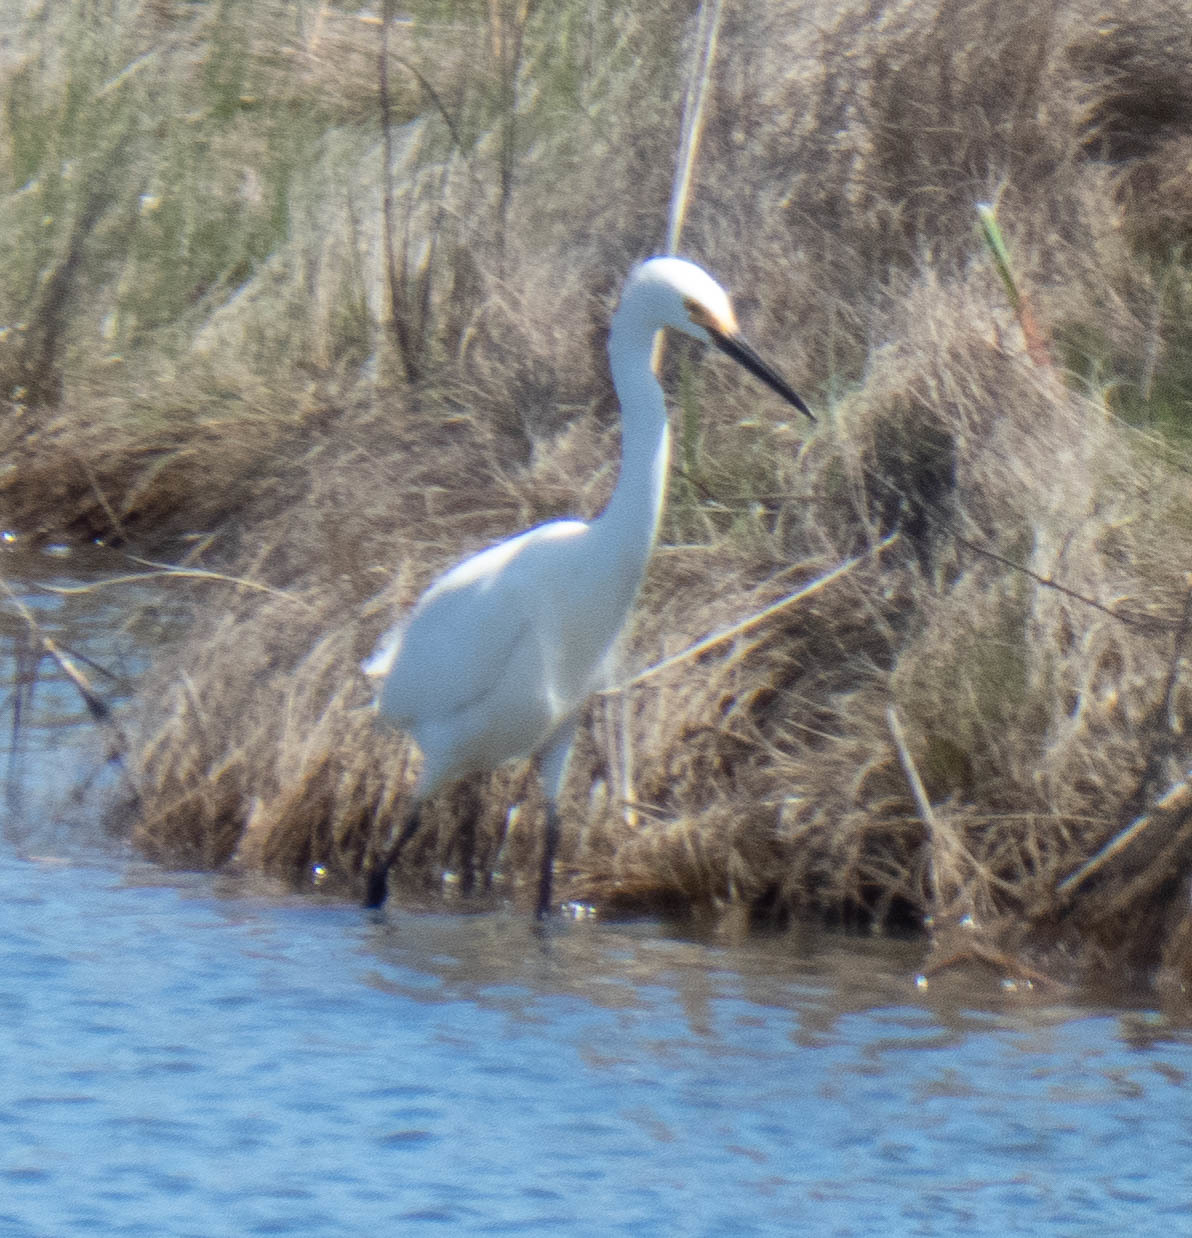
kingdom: Animalia
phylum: Chordata
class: Aves
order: Pelecaniformes
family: Ardeidae
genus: Egretta
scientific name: Egretta thula
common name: Snowy egret
